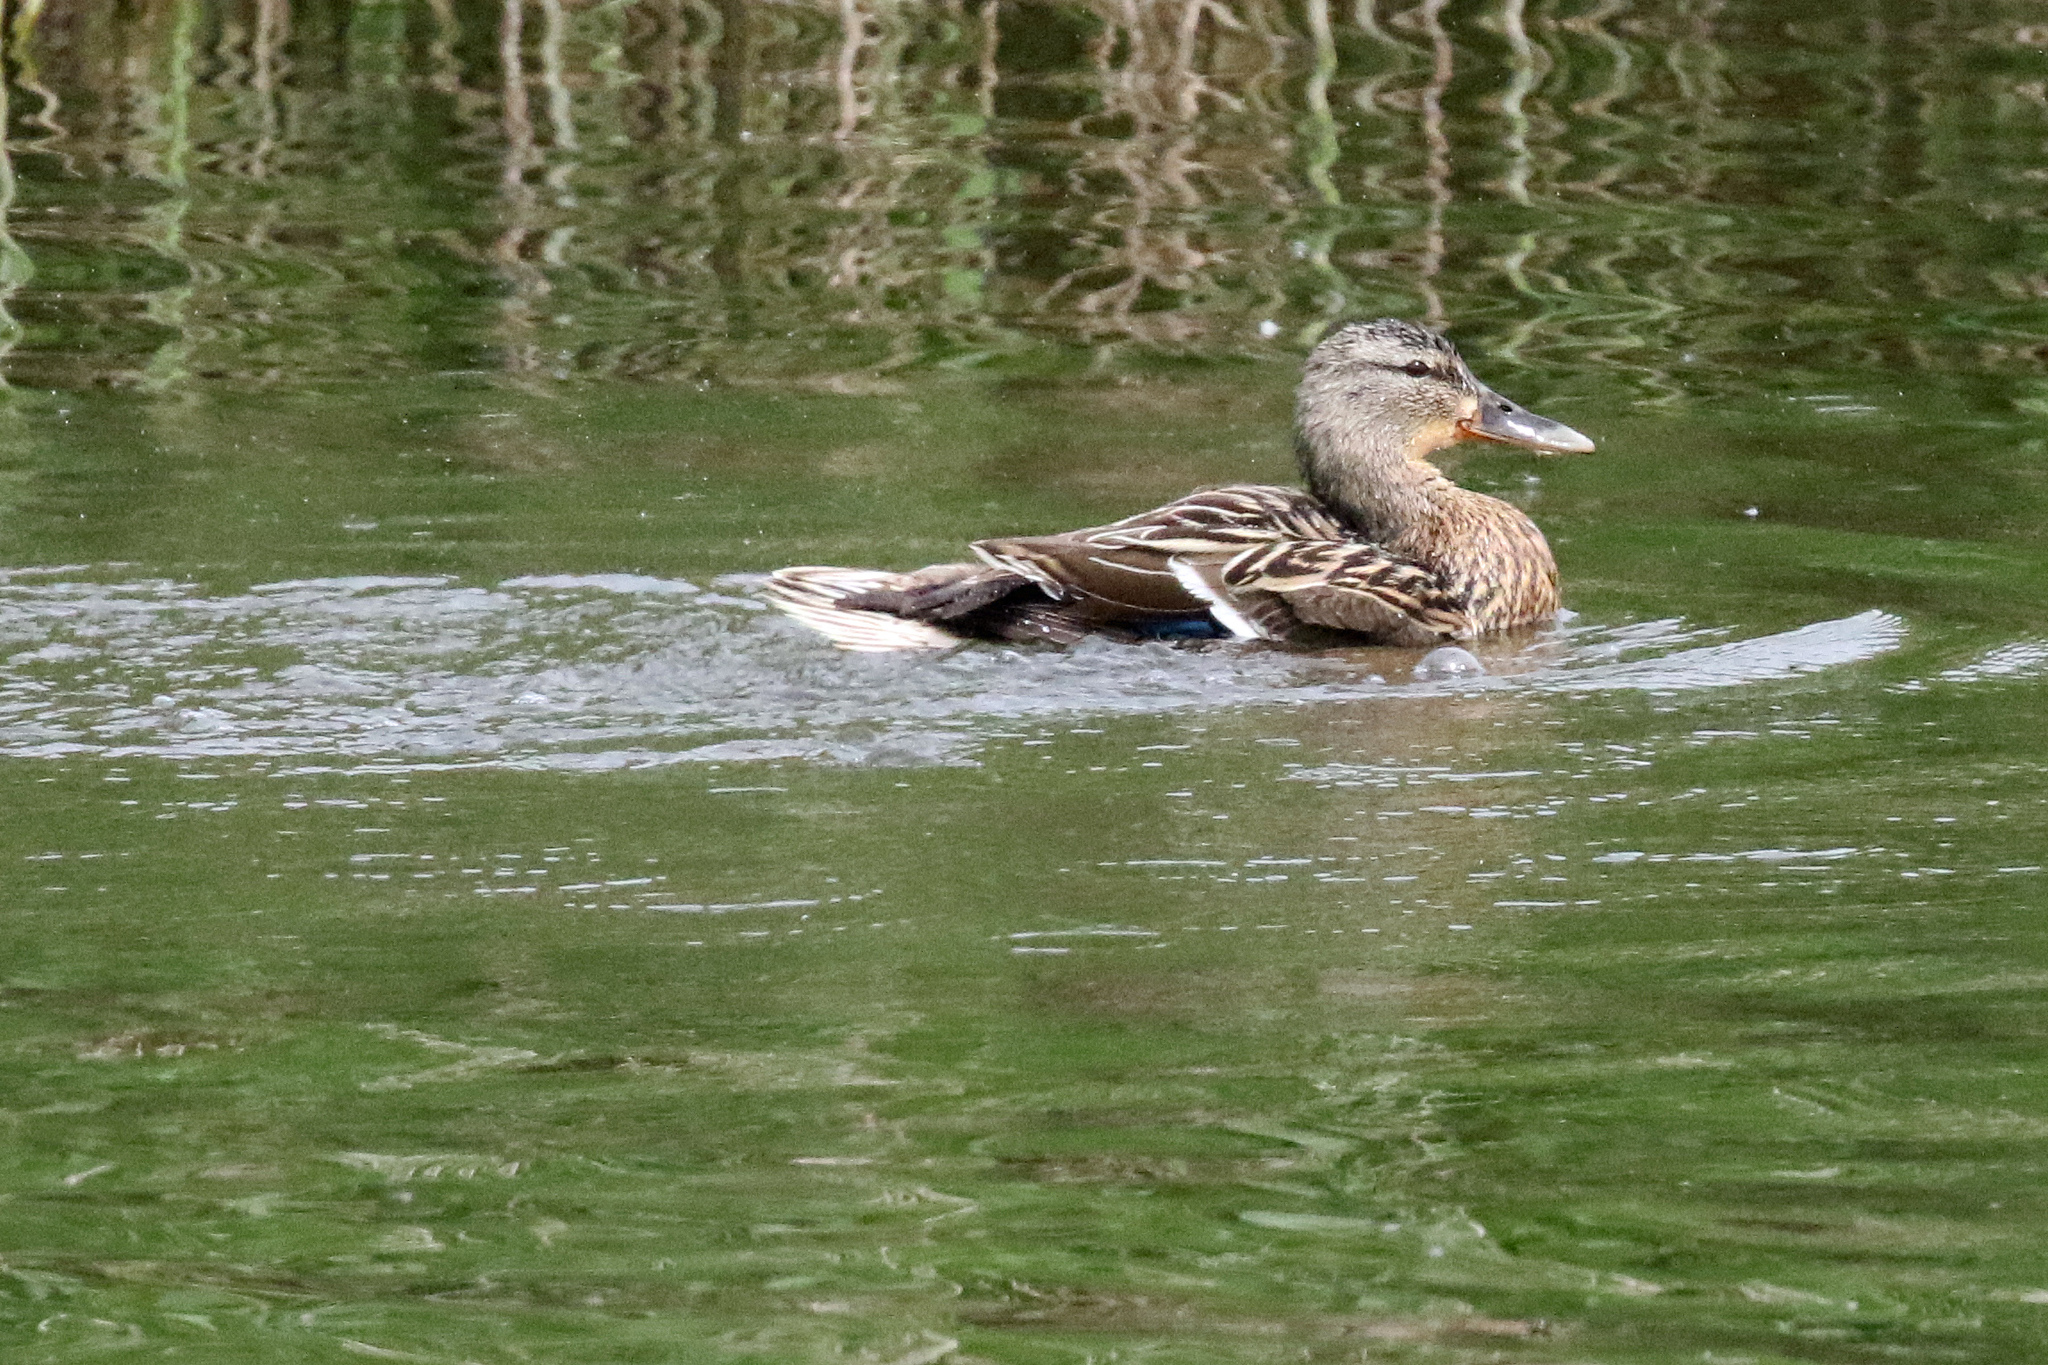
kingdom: Animalia
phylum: Chordata
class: Aves
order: Anseriformes
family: Anatidae
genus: Anas
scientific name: Anas platyrhynchos
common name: Mallard
